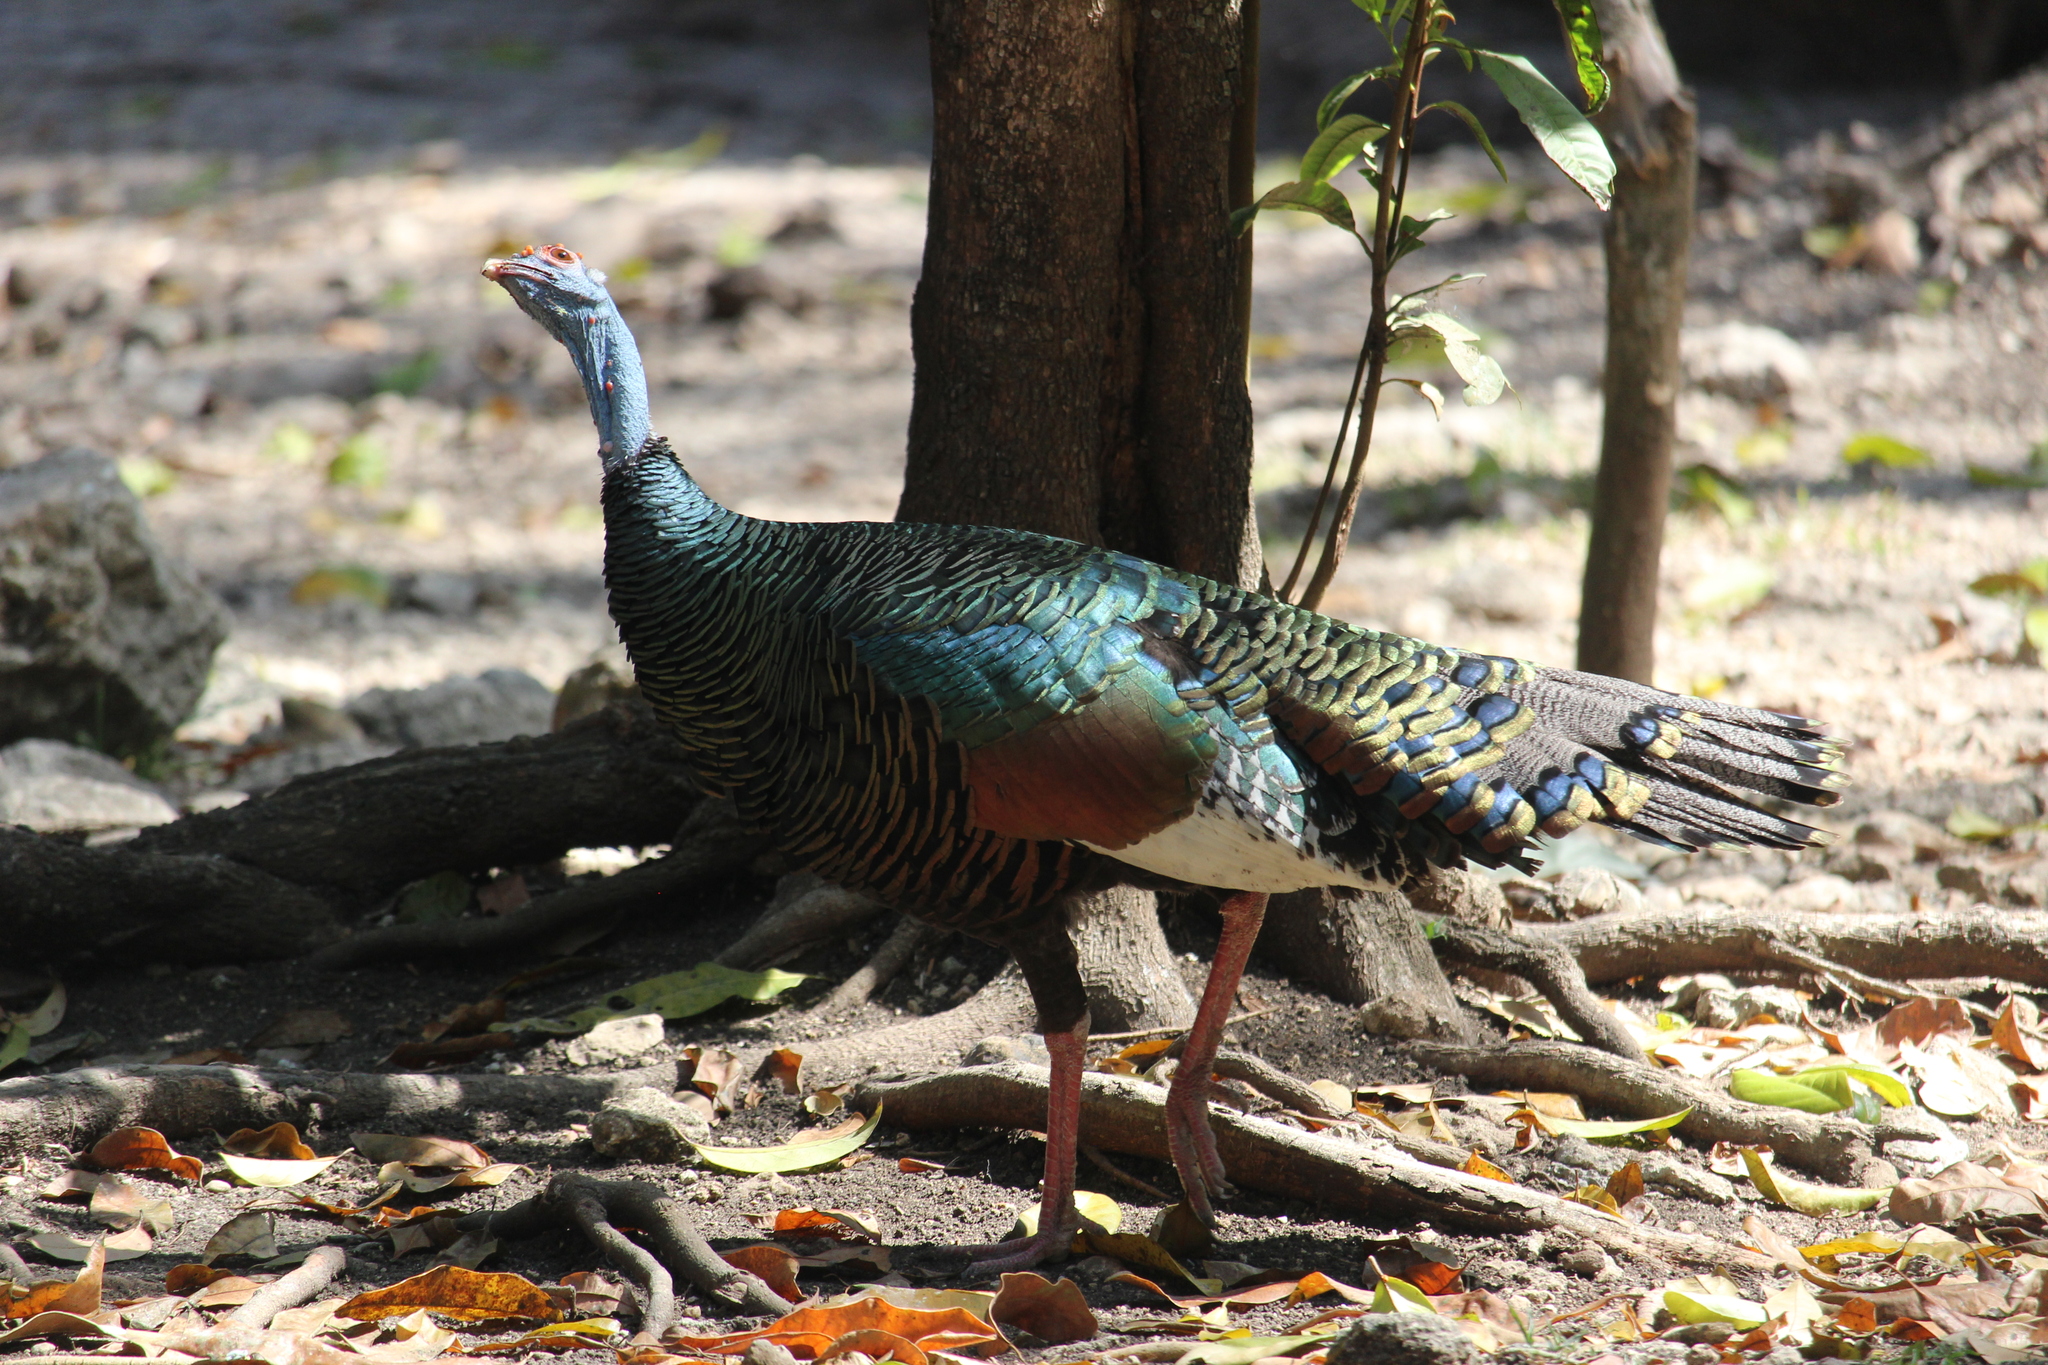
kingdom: Animalia
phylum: Chordata
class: Aves
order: Galliformes
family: Phasianidae
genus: Meleagris
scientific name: Meleagris ocellata
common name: Ocellated turkey
